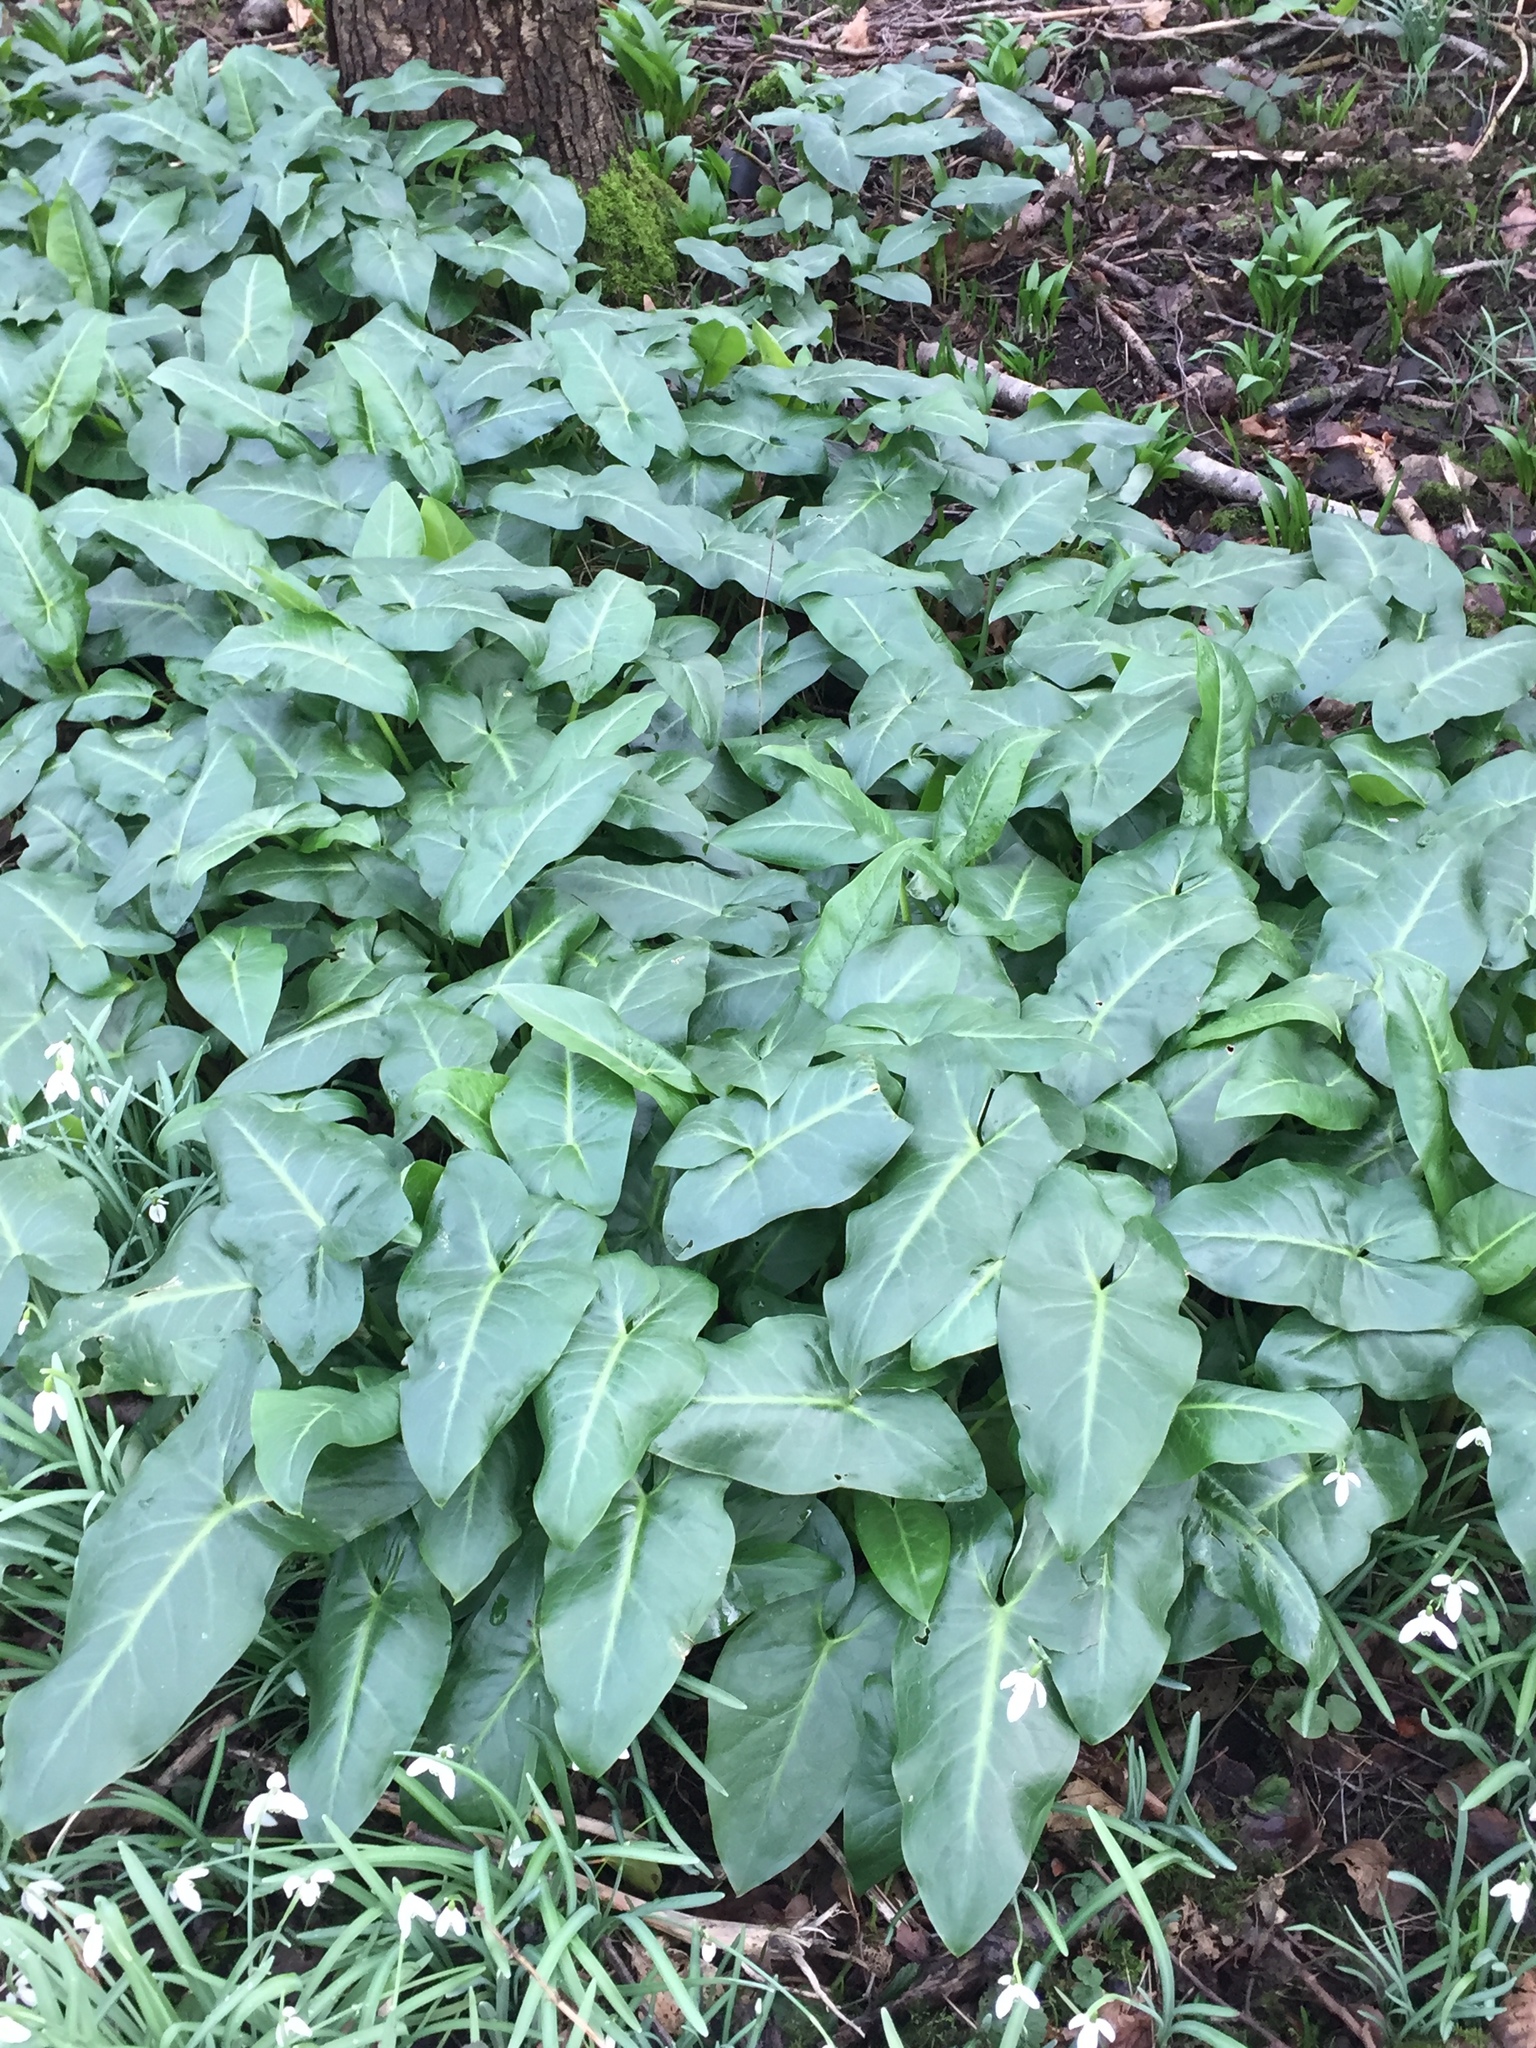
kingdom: Plantae
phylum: Tracheophyta
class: Liliopsida
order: Alismatales
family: Araceae
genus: Arum
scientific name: Arum maculatum
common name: Lords-and-ladies
